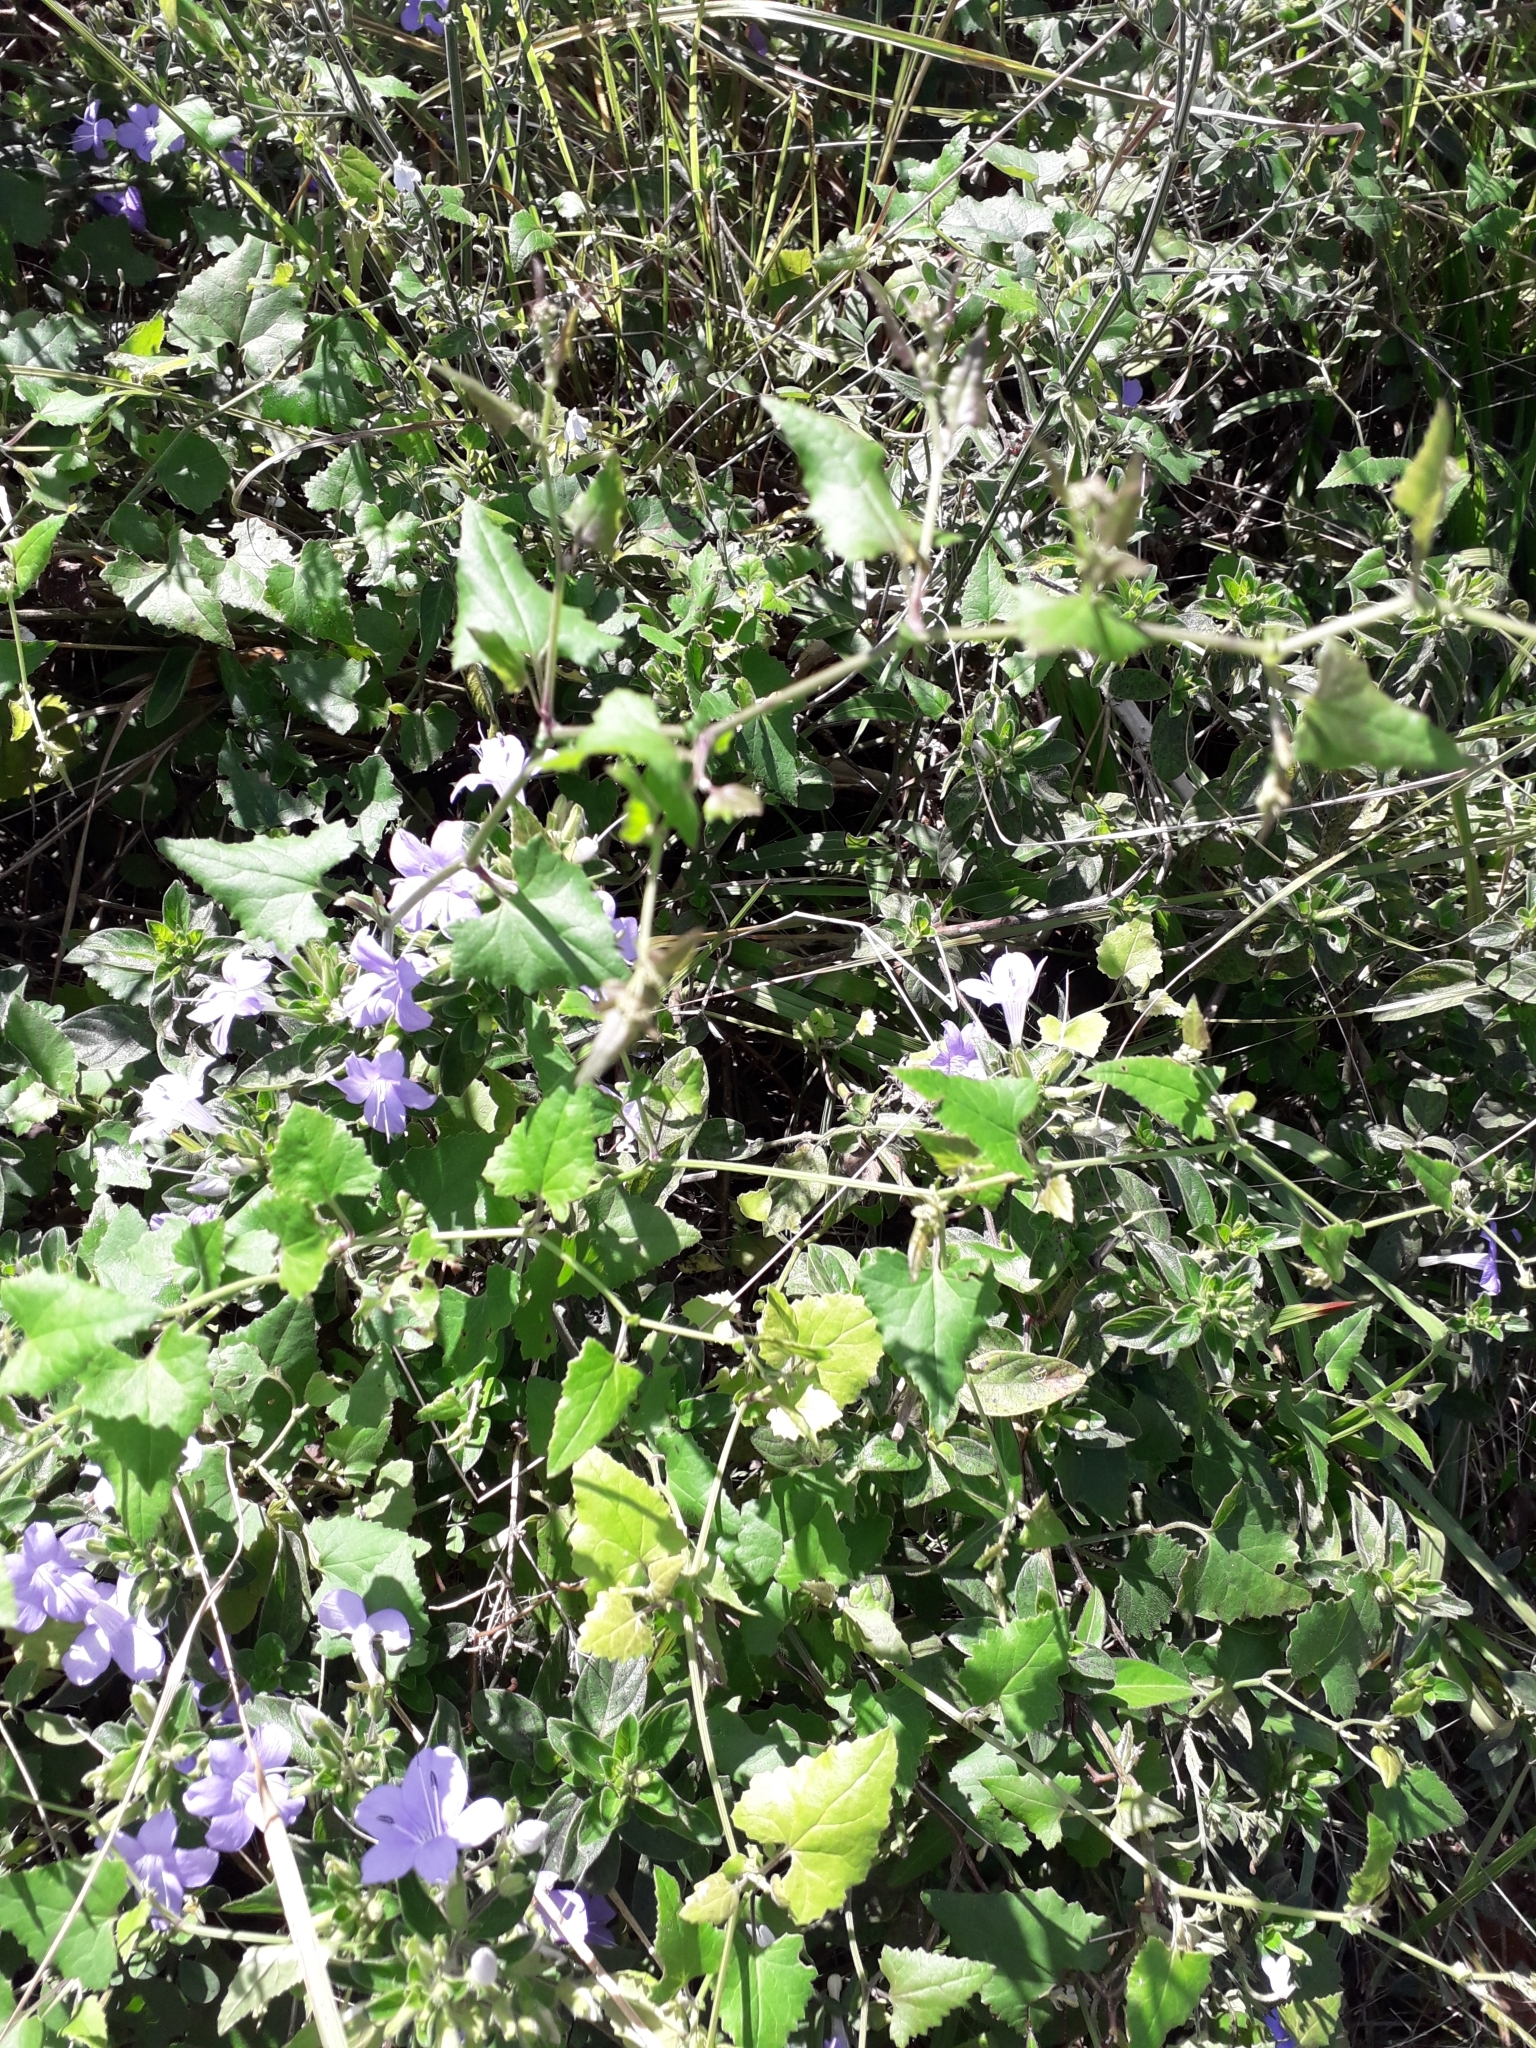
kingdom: Plantae
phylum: Tracheophyta
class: Magnoliopsida
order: Lamiales
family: Acanthaceae
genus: Barleria
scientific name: Barleria obtusa
